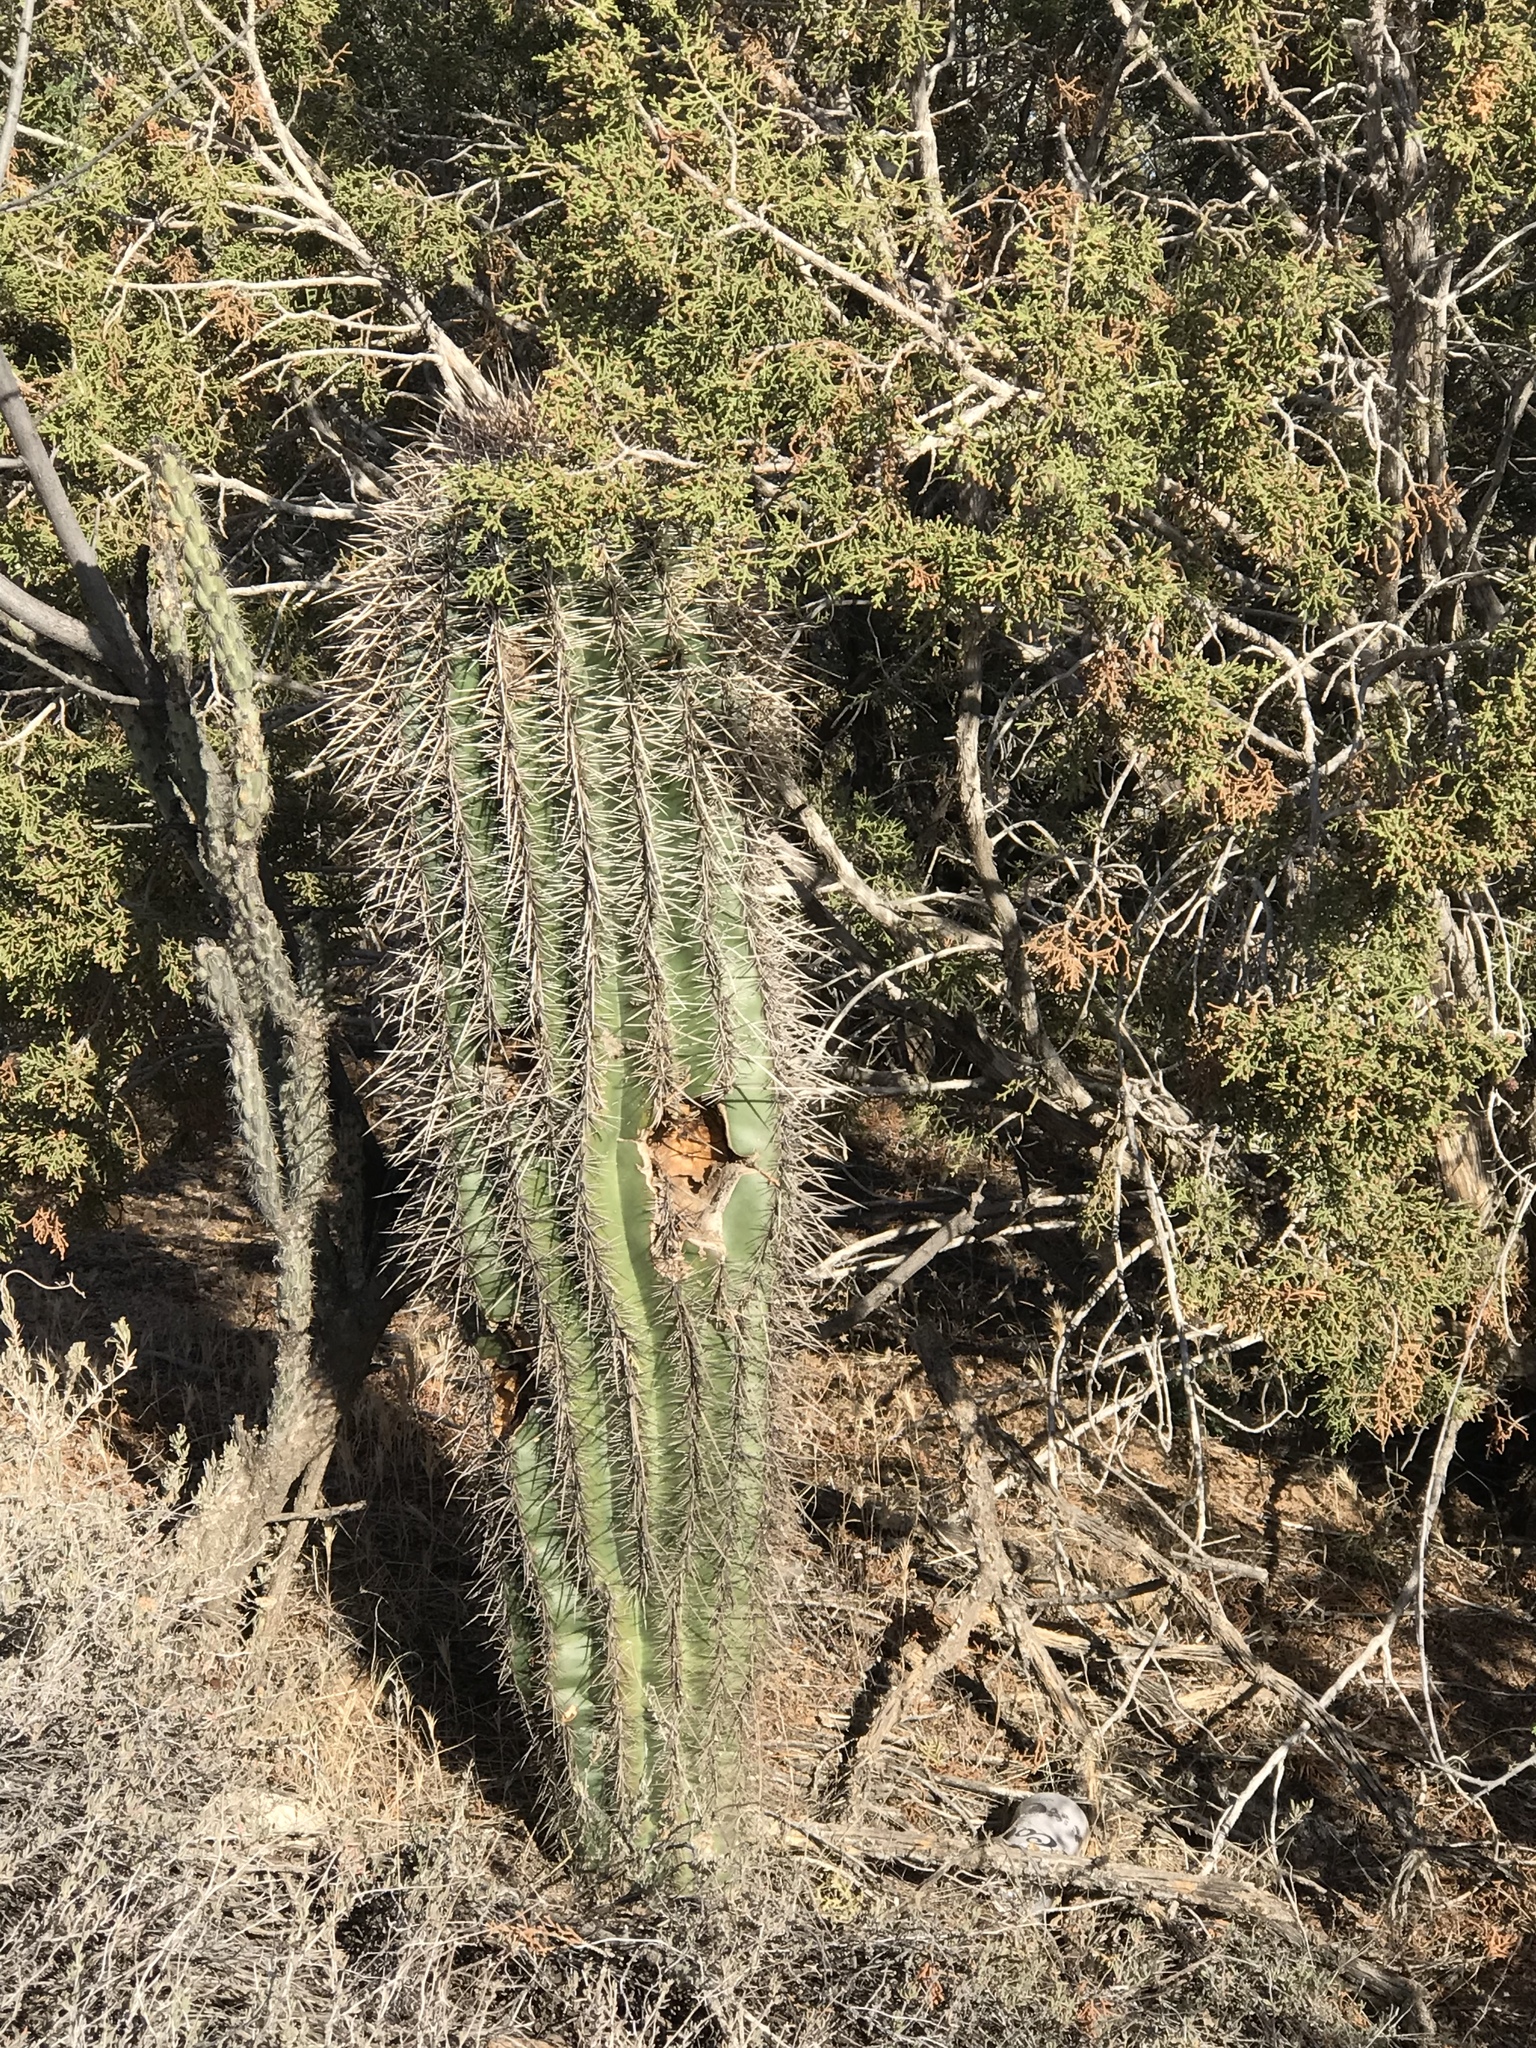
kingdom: Plantae
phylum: Tracheophyta
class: Magnoliopsida
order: Caryophyllales
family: Cactaceae
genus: Carnegiea
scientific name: Carnegiea gigantea
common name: Saguaro
